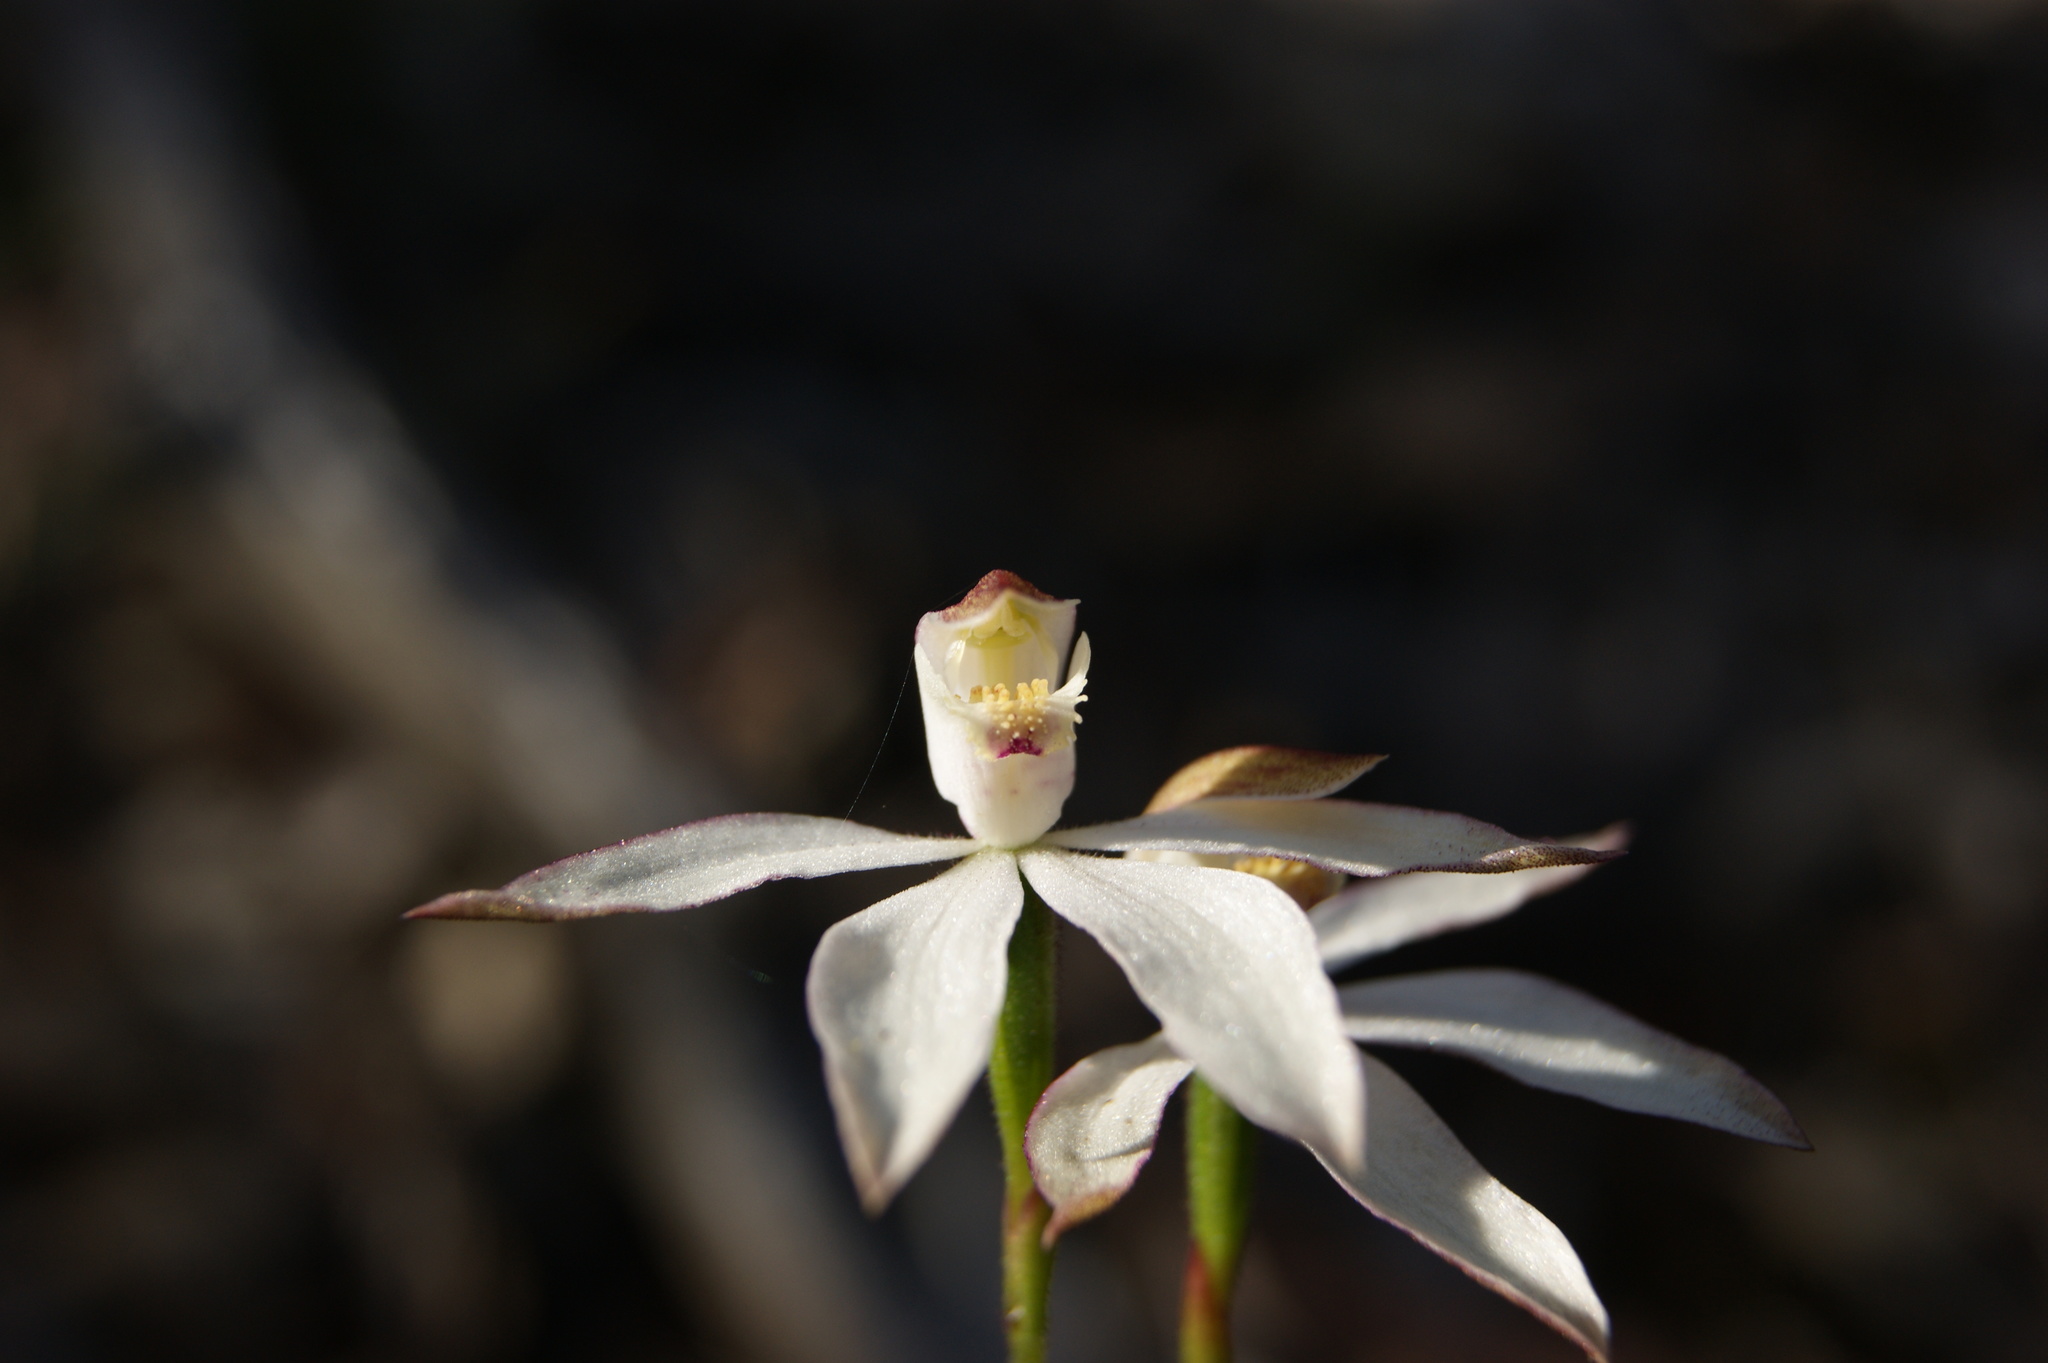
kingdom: Plantae
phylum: Tracheophyta
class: Liliopsida
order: Asparagales
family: Orchidaceae
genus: Caladenia
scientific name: Caladenia moschata
